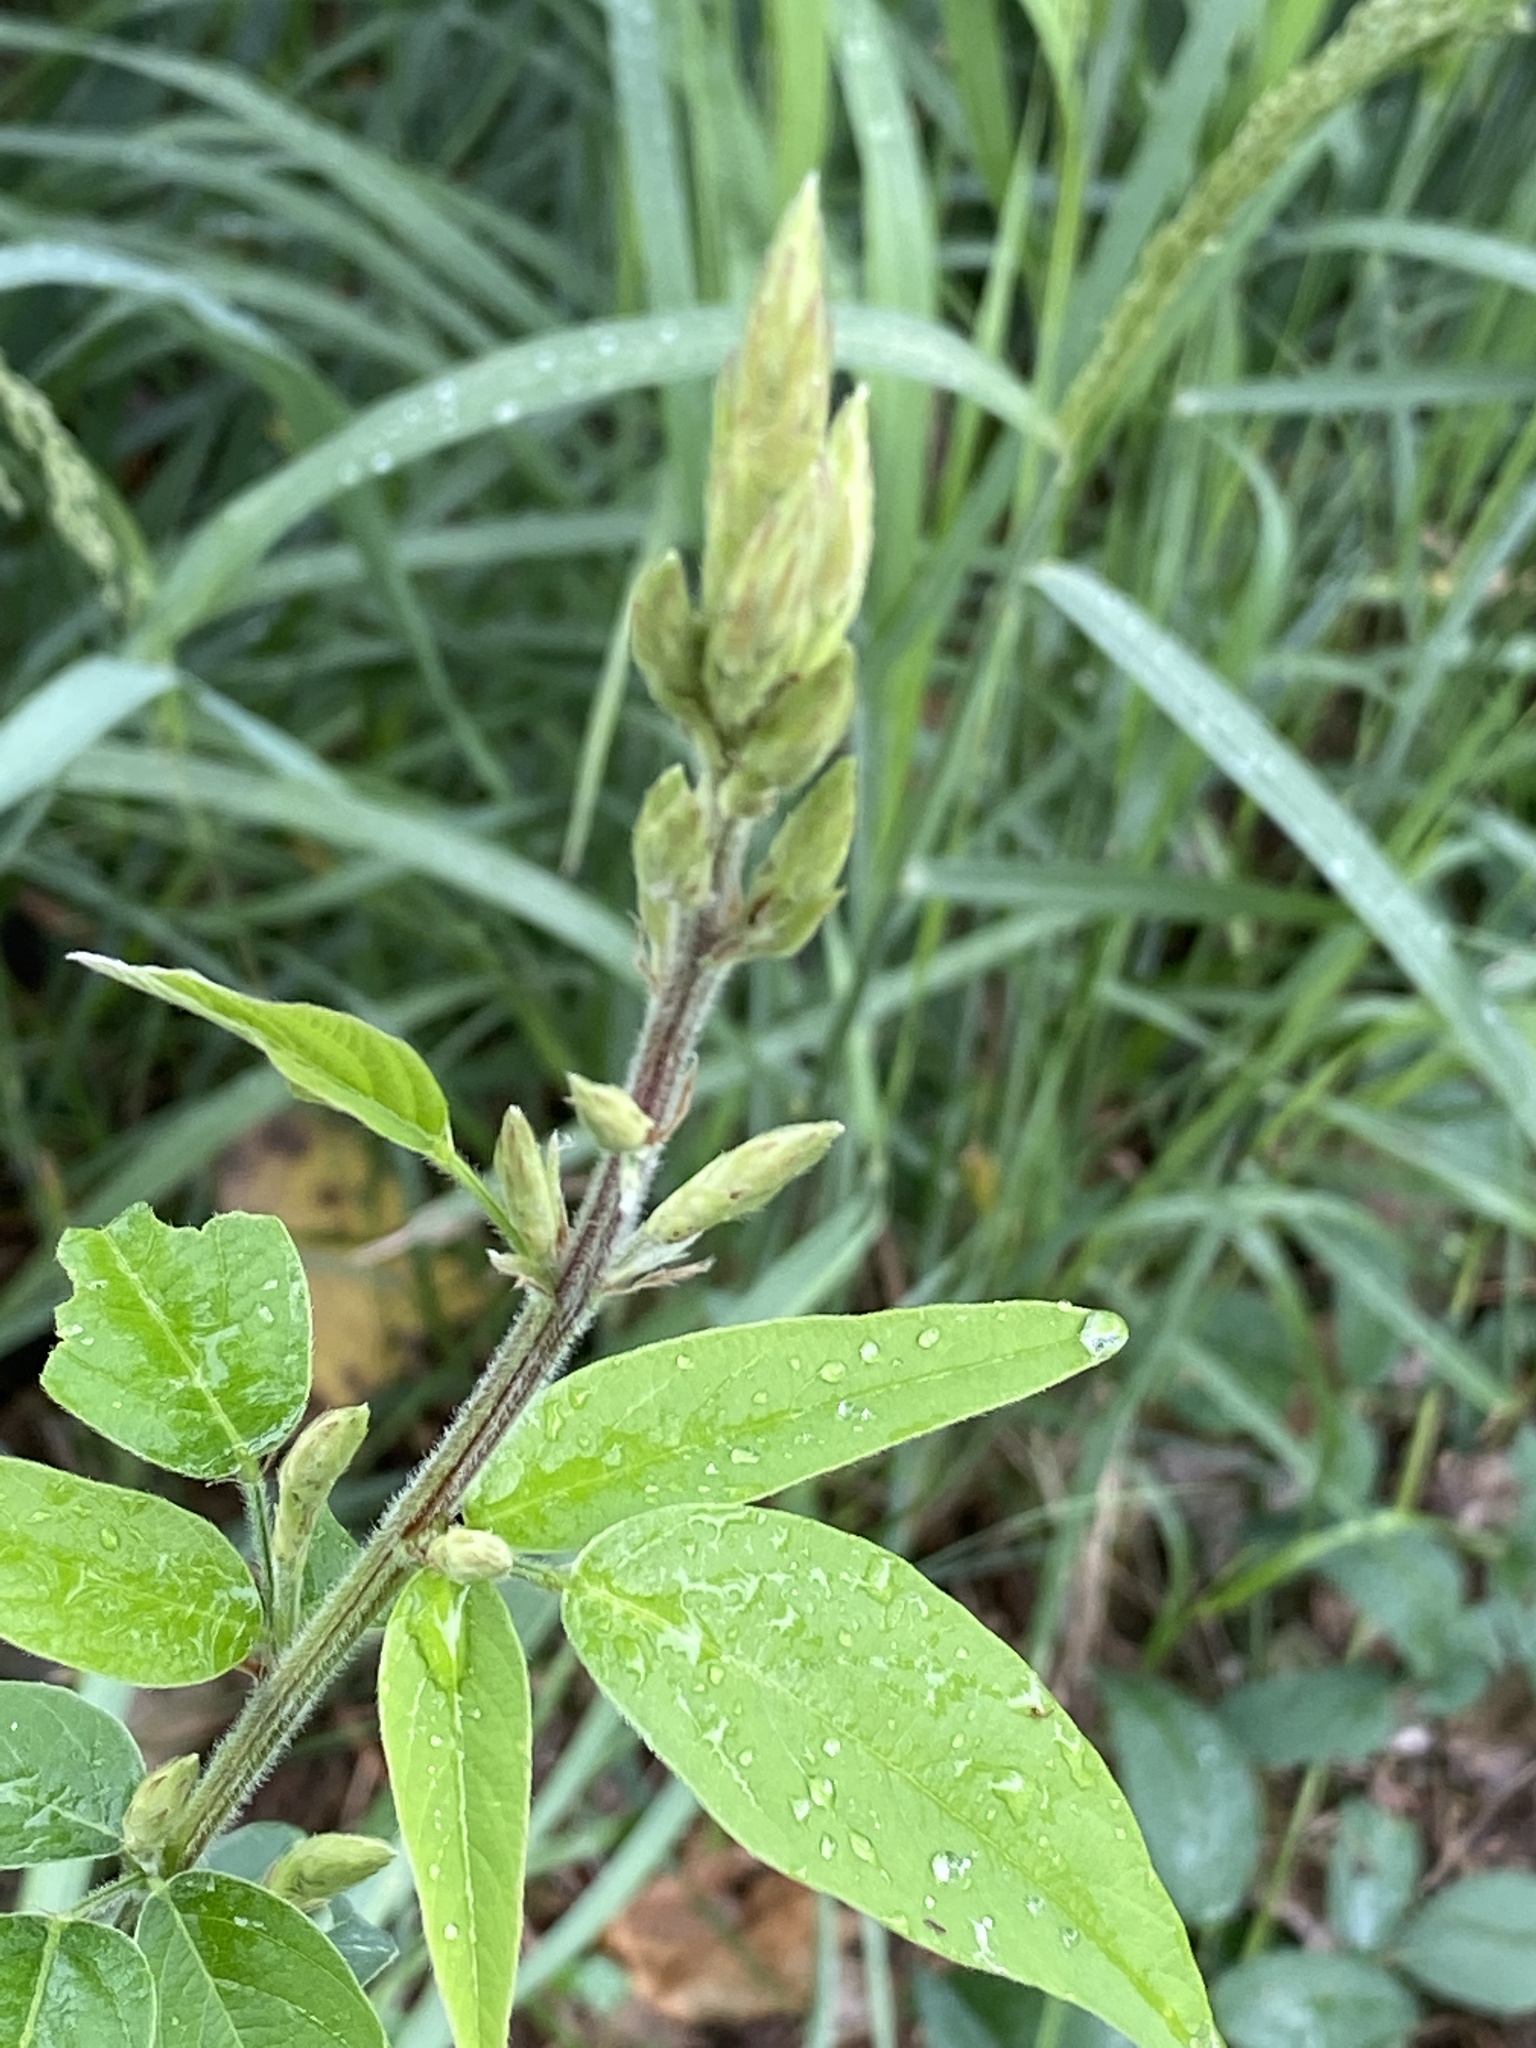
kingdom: Plantae
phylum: Tracheophyta
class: Magnoliopsida
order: Fabales
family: Fabaceae
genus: Desmodium
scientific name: Desmodium canadense
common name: Canada tick-trefoil
